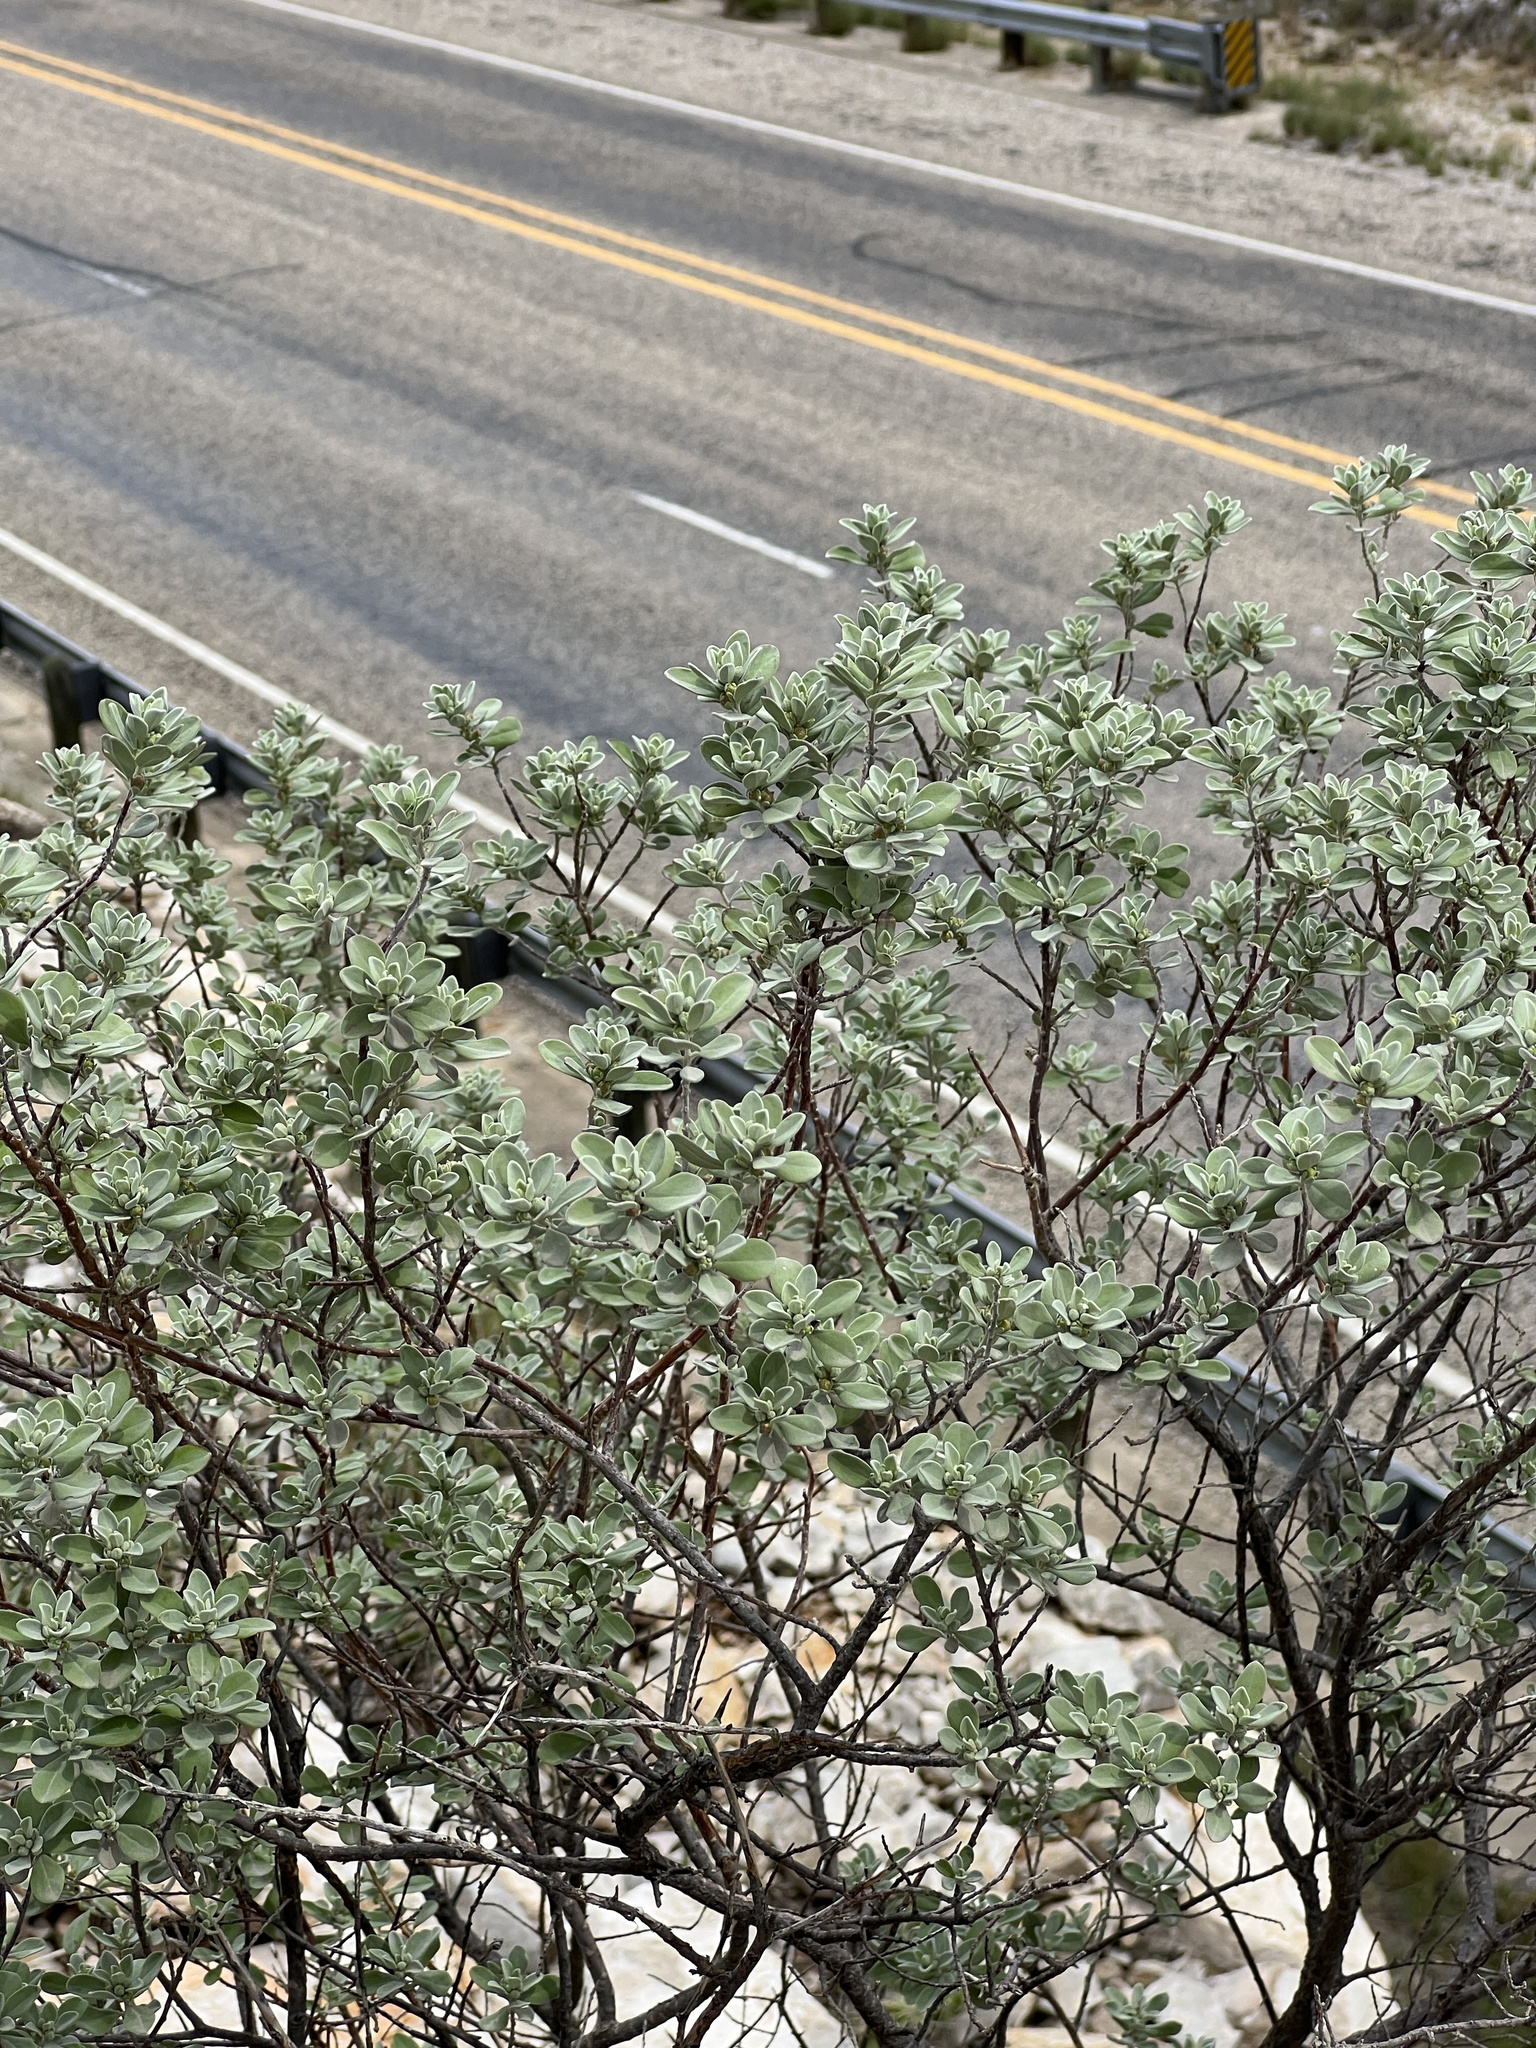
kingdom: Plantae
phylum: Tracheophyta
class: Magnoliopsida
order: Lamiales
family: Scrophulariaceae
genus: Leucophyllum
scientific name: Leucophyllum frutescens
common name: Texas silverleaf
